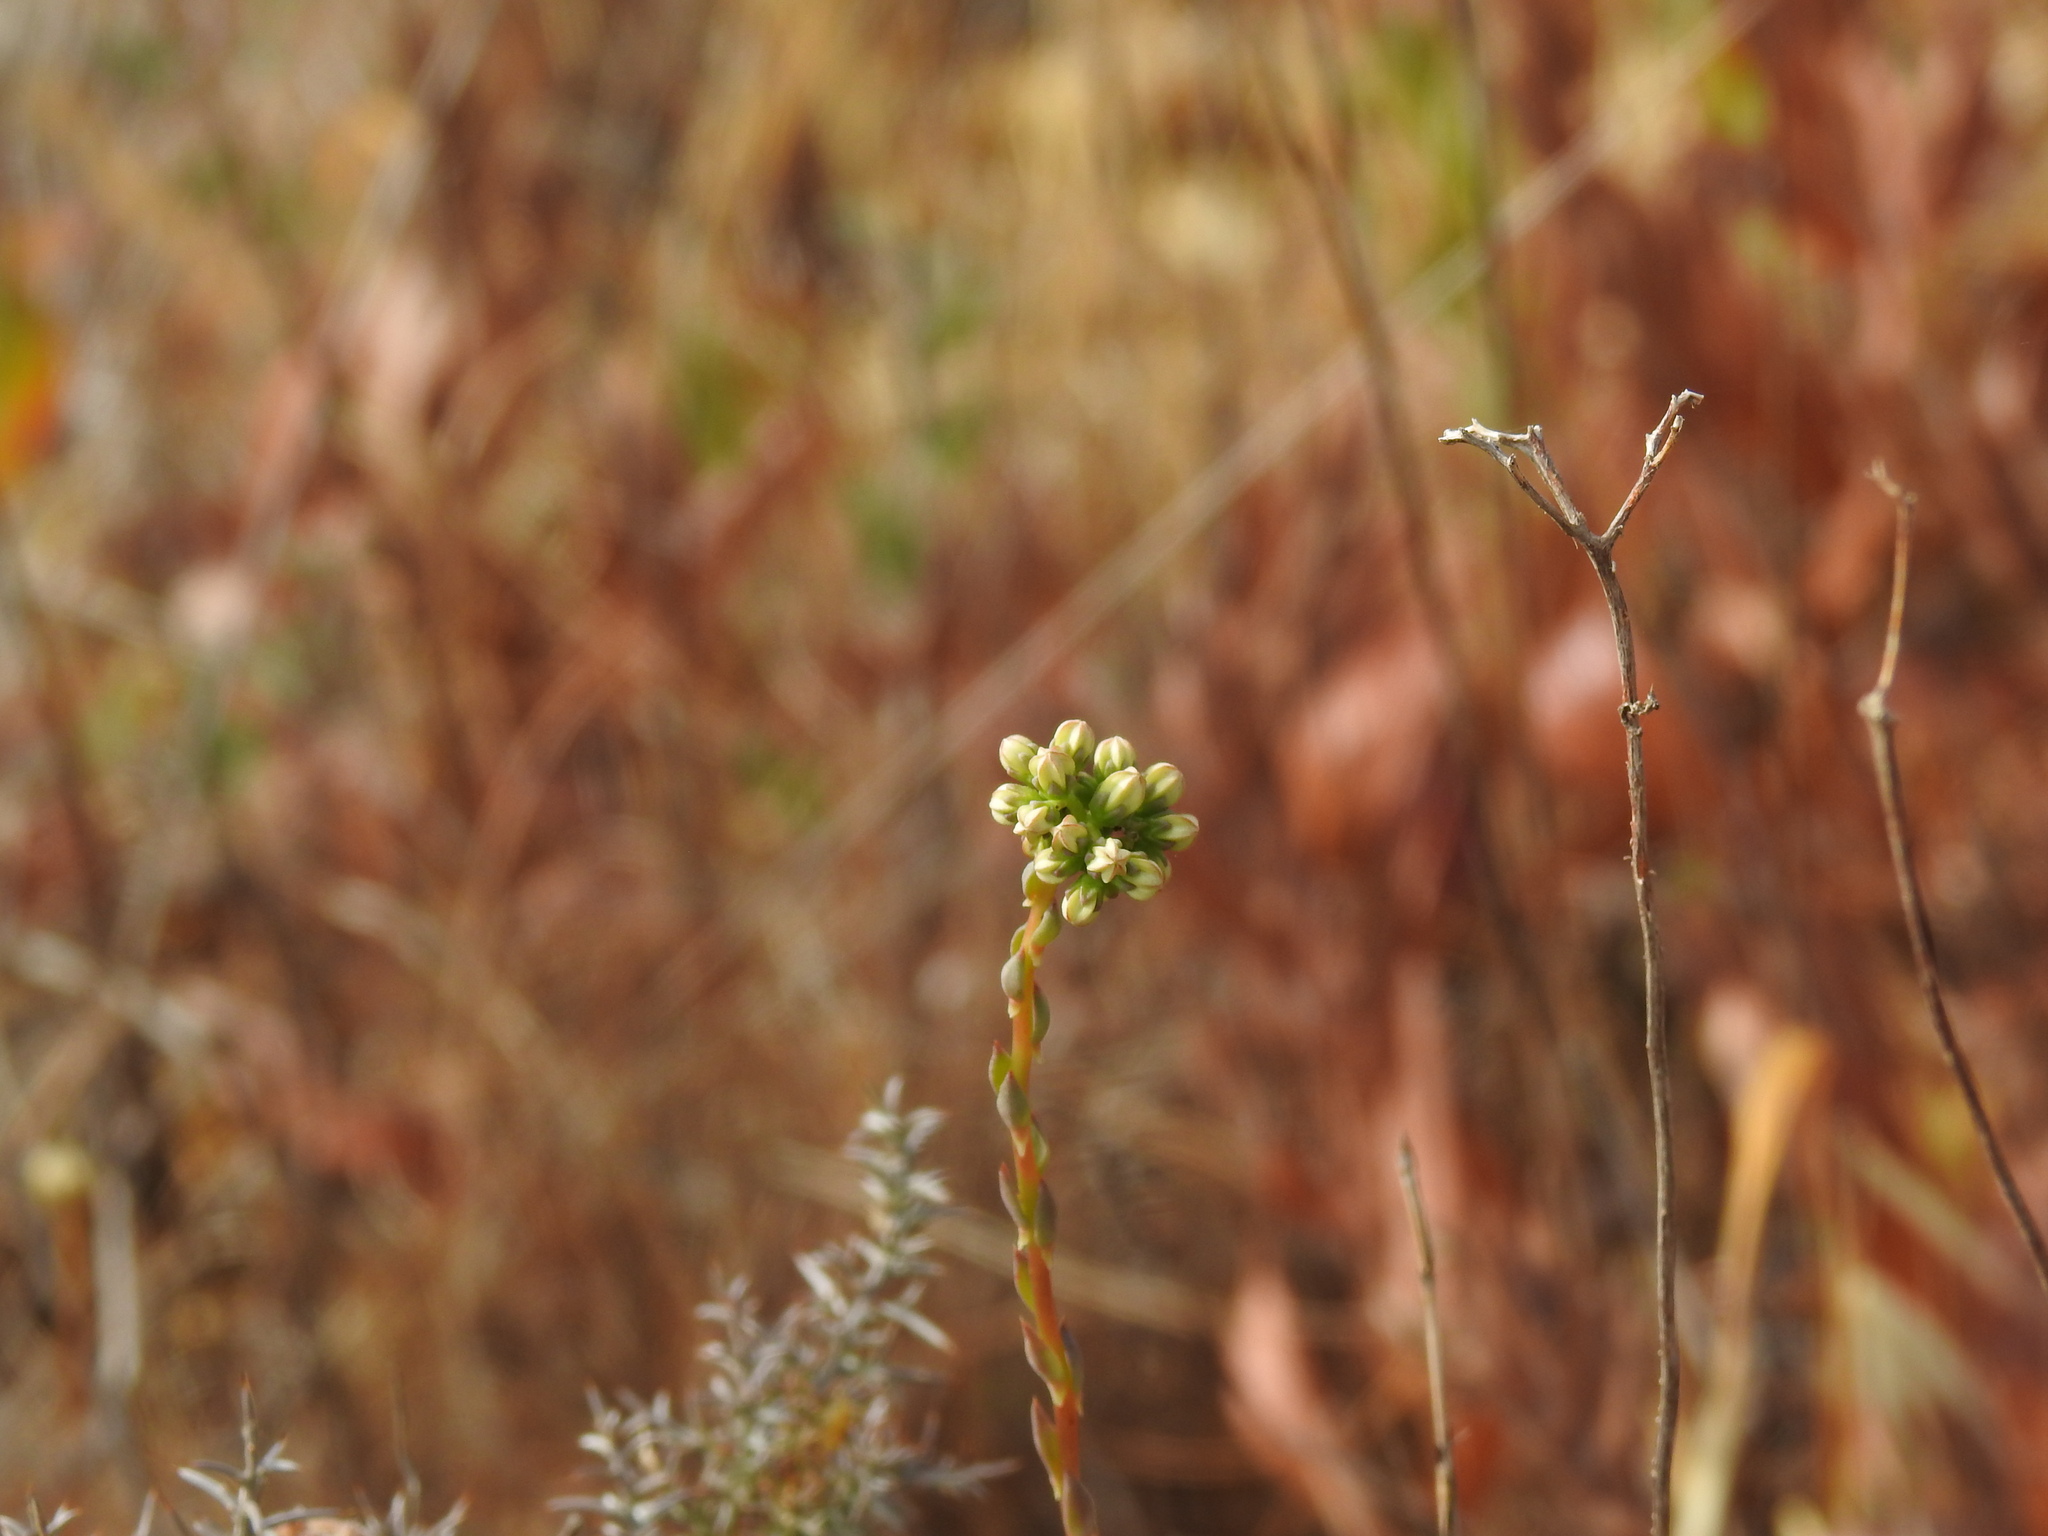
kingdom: Plantae
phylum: Tracheophyta
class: Magnoliopsida
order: Saxifragales
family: Crassulaceae
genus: Petrosedum
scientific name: Petrosedum sediforme
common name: Pale stonecrop
